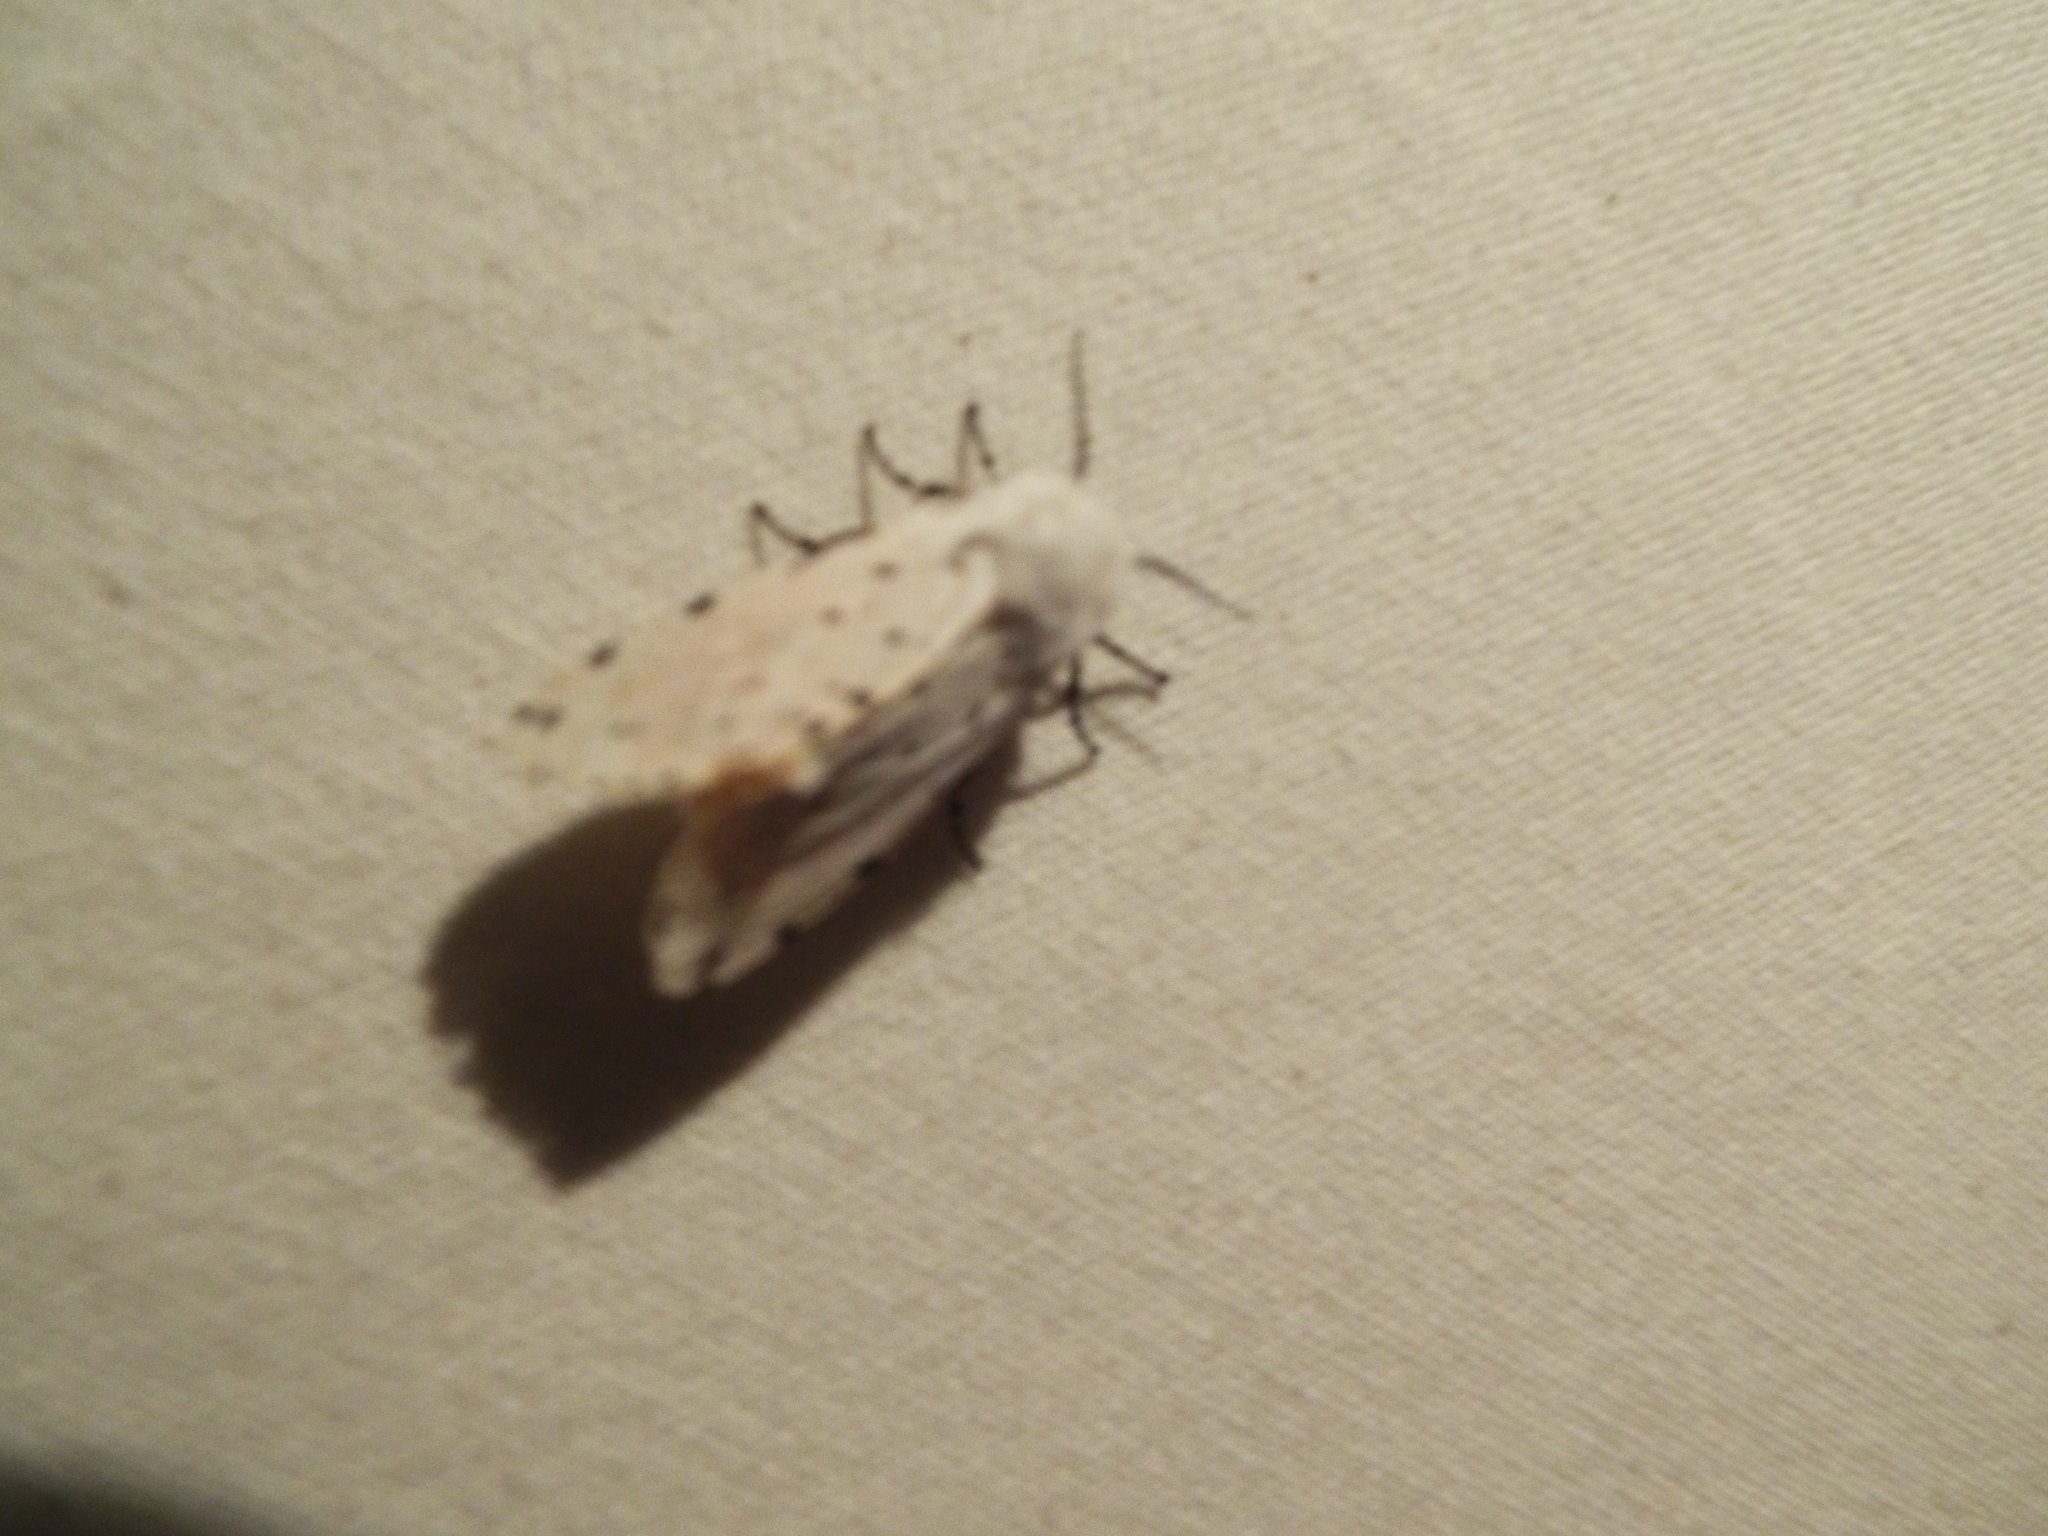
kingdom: Animalia
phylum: Arthropoda
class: Insecta
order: Lepidoptera
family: Erebidae
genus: Estigmene
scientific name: Estigmene acrea
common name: Salt marsh moth
